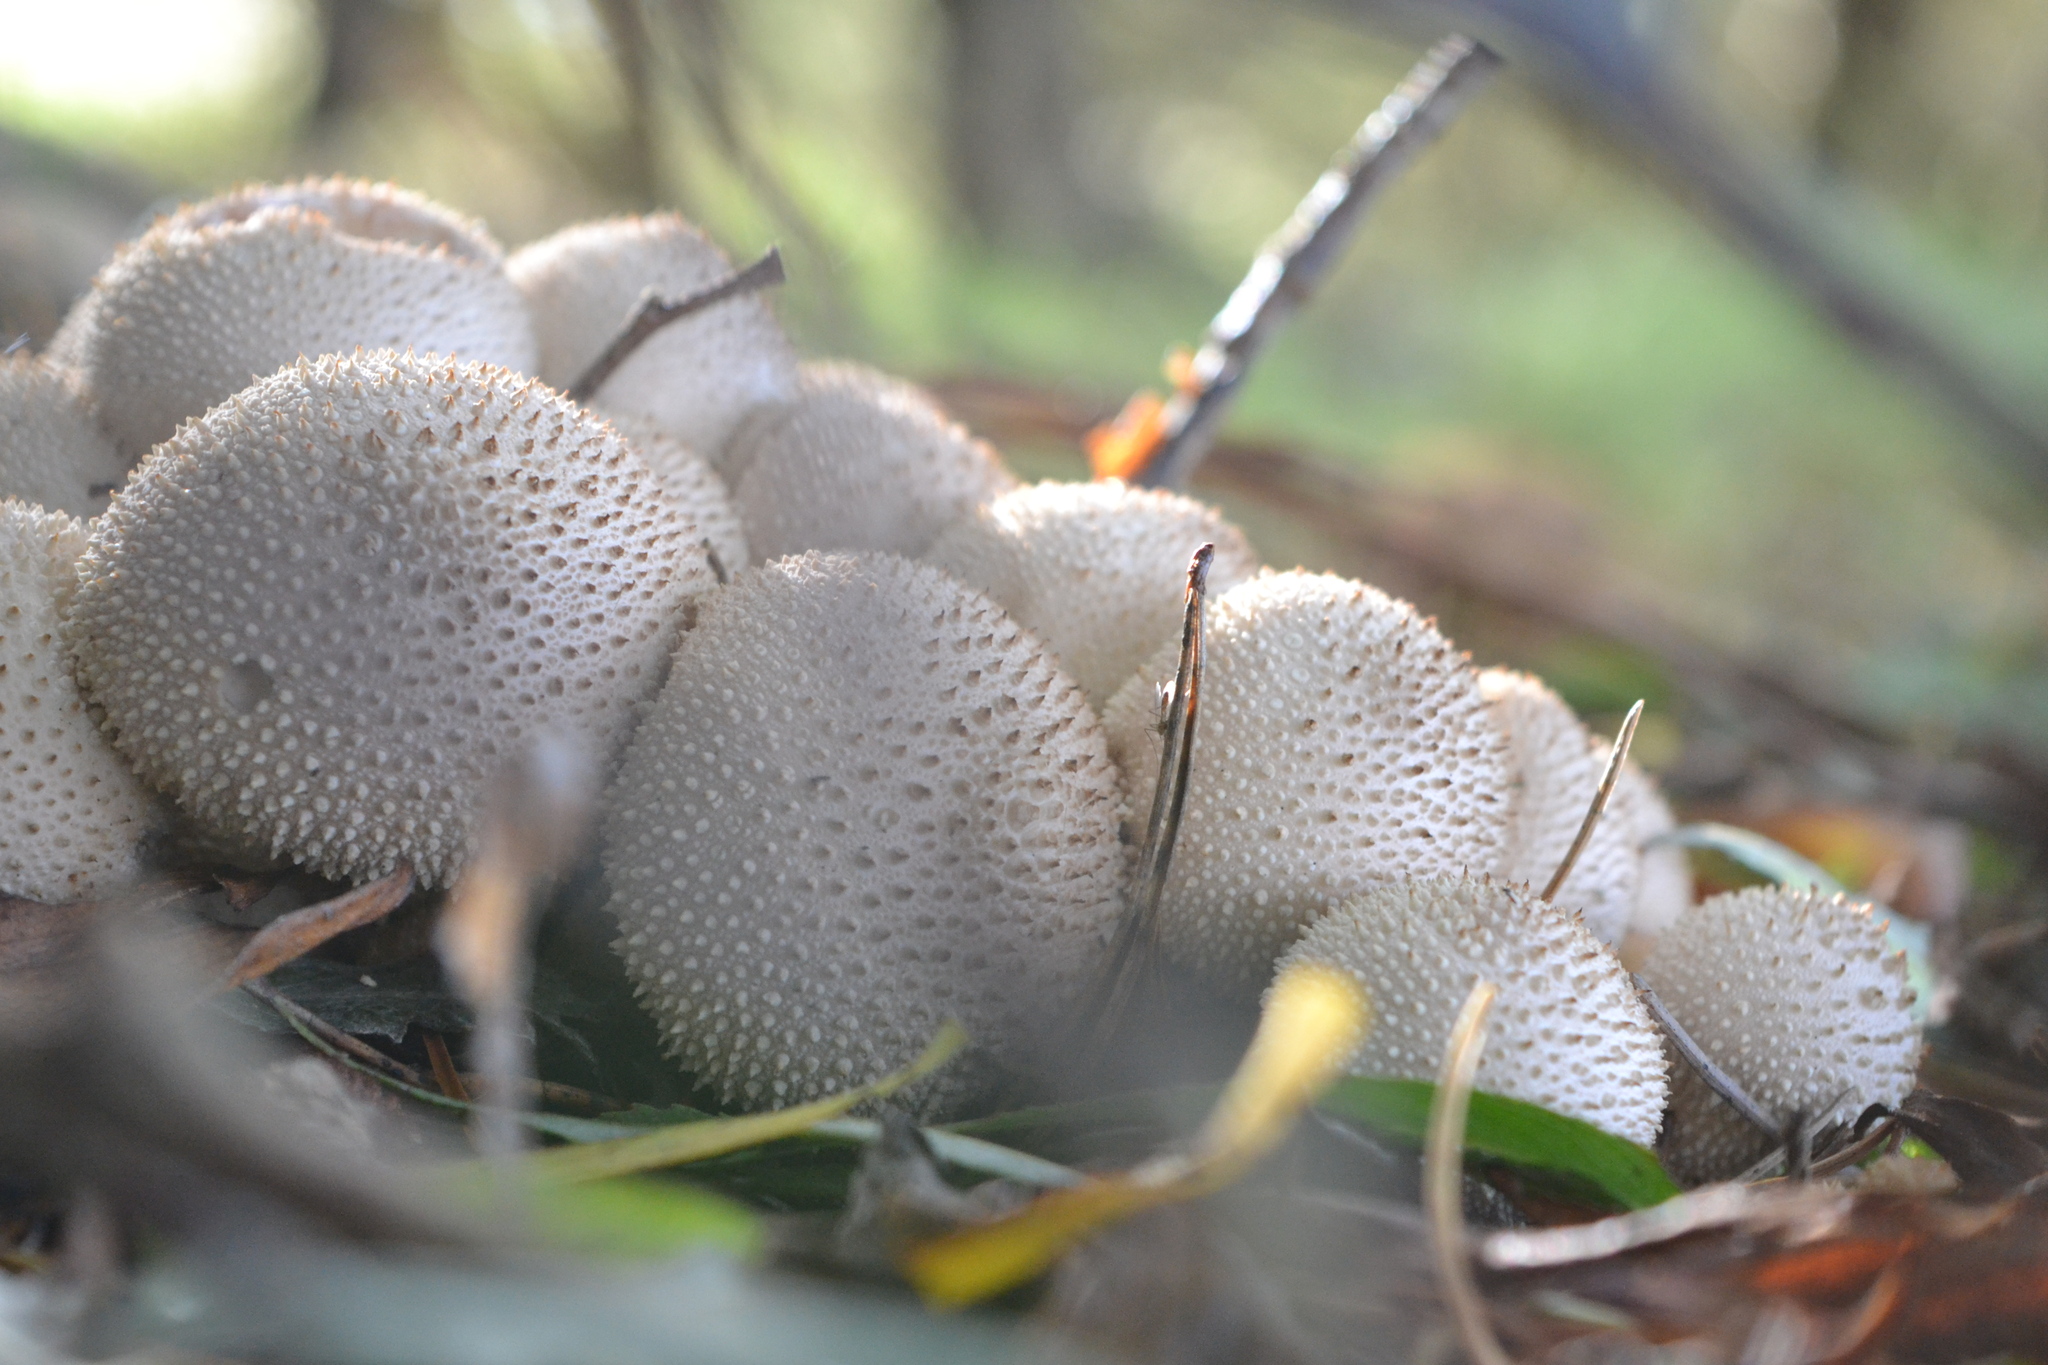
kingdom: Fungi
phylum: Basidiomycota
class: Agaricomycetes
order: Agaricales
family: Lycoperdaceae
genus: Lycoperdon
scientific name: Lycoperdon perlatum
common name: Common puffball
